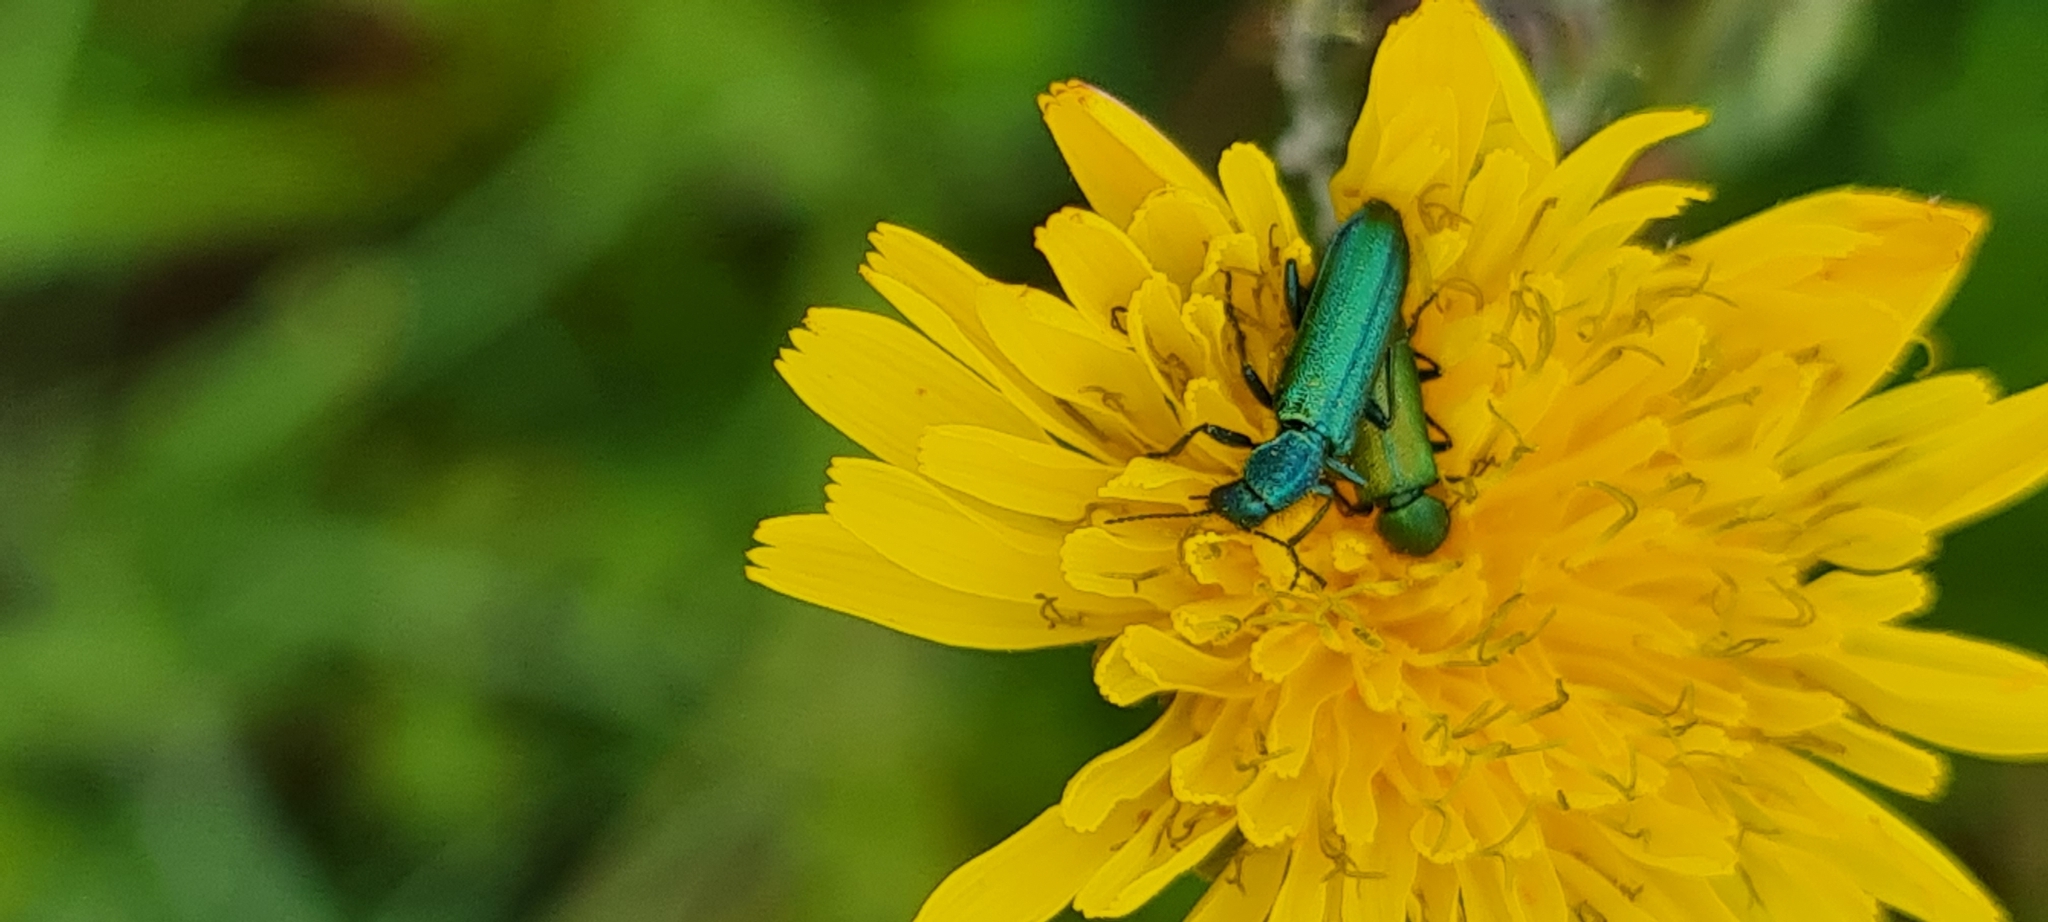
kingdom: Animalia
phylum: Arthropoda
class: Insecta
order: Coleoptera
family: Dasytidae
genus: Psilothrix
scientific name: Psilothrix viridicoerulea
